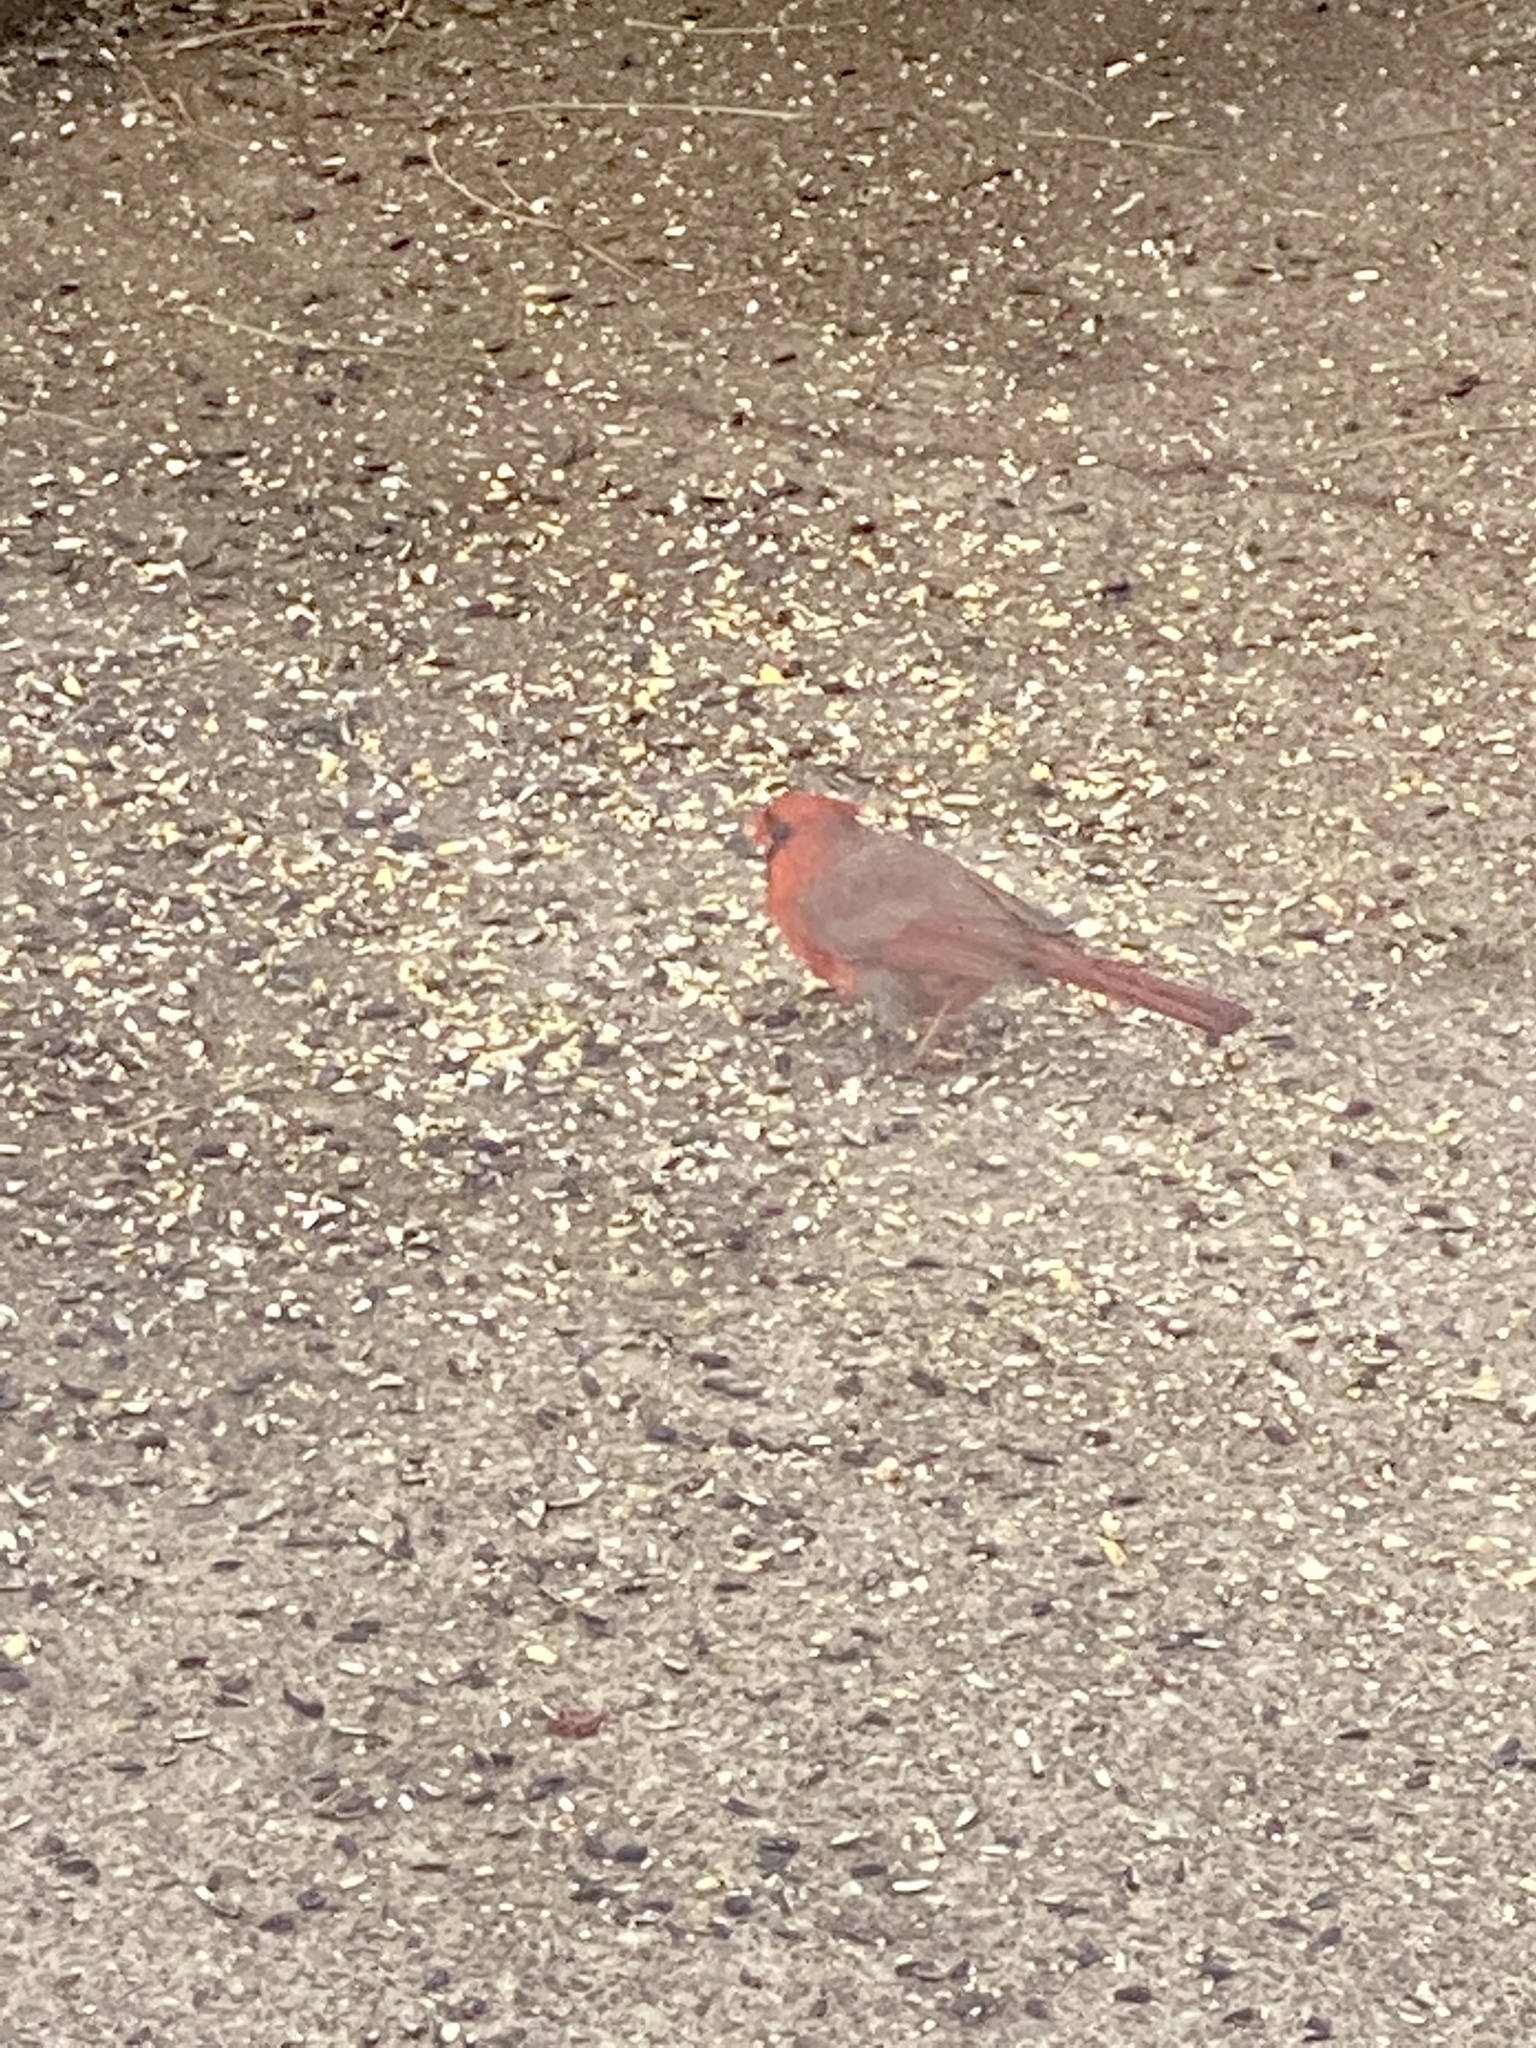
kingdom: Animalia
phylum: Chordata
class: Aves
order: Passeriformes
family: Cardinalidae
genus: Cardinalis
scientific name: Cardinalis cardinalis
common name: Northern cardinal
